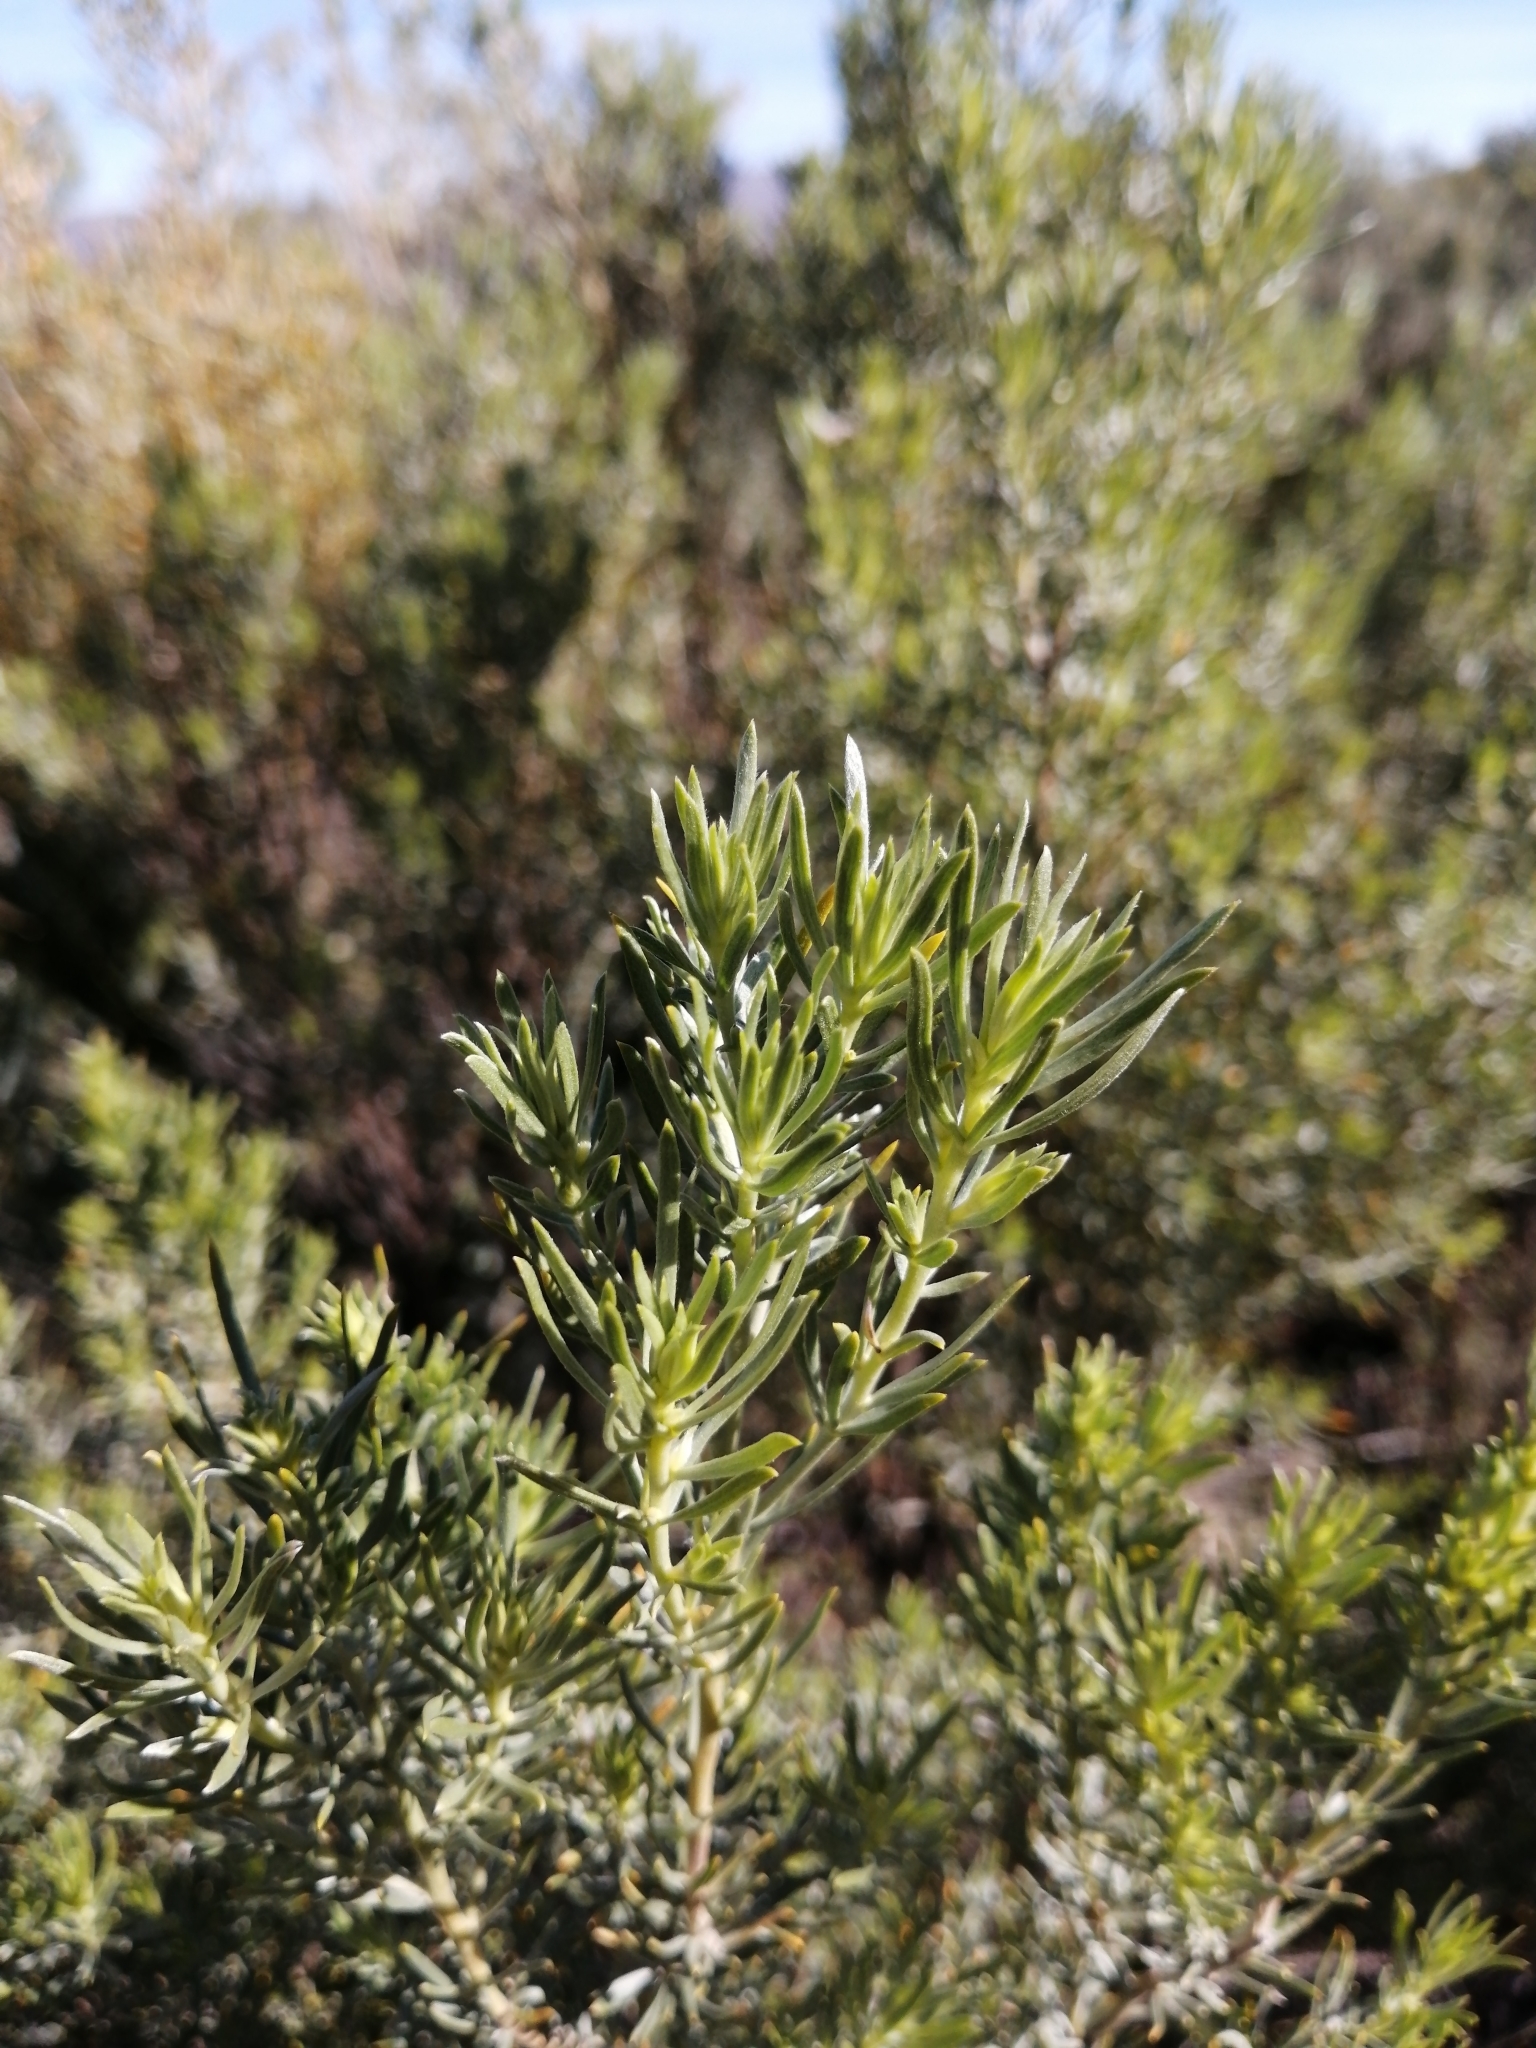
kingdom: Plantae
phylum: Tracheophyta
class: Magnoliopsida
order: Fabales
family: Fabaceae
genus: Aspalathus
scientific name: Aspalathus rugosa
